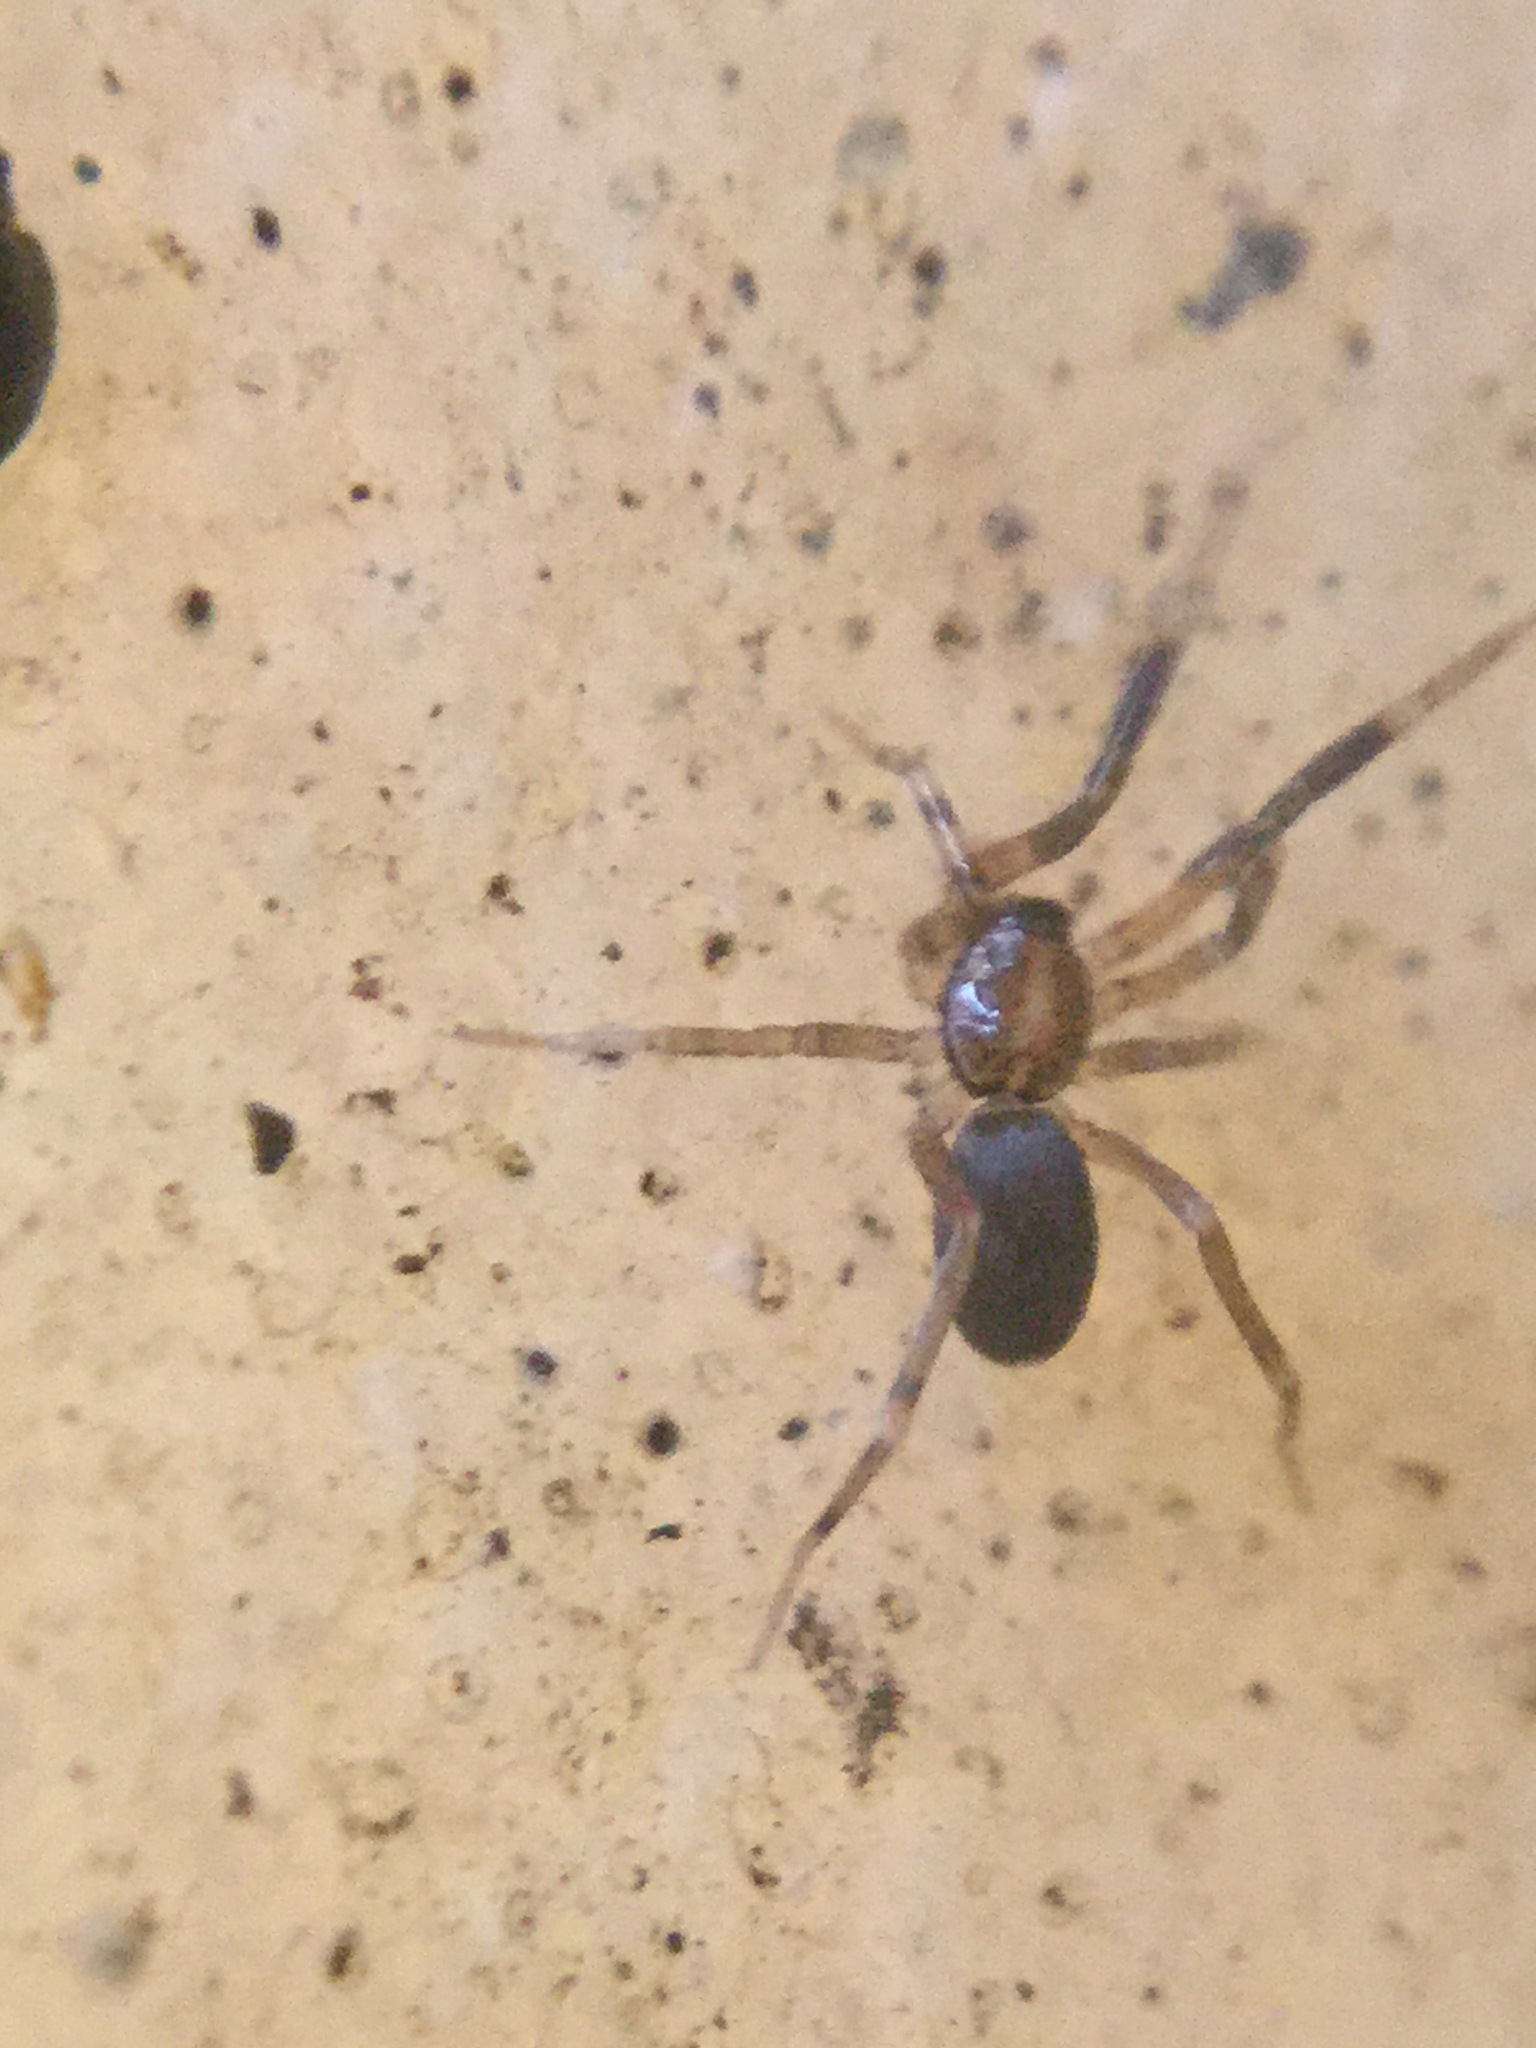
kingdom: Animalia
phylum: Arthropoda
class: Arachnida
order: Araneae
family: Phrurolithidae
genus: Phrurotimpus
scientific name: Phrurotimpus borealis
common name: Greater ant-mimic corinne spider
